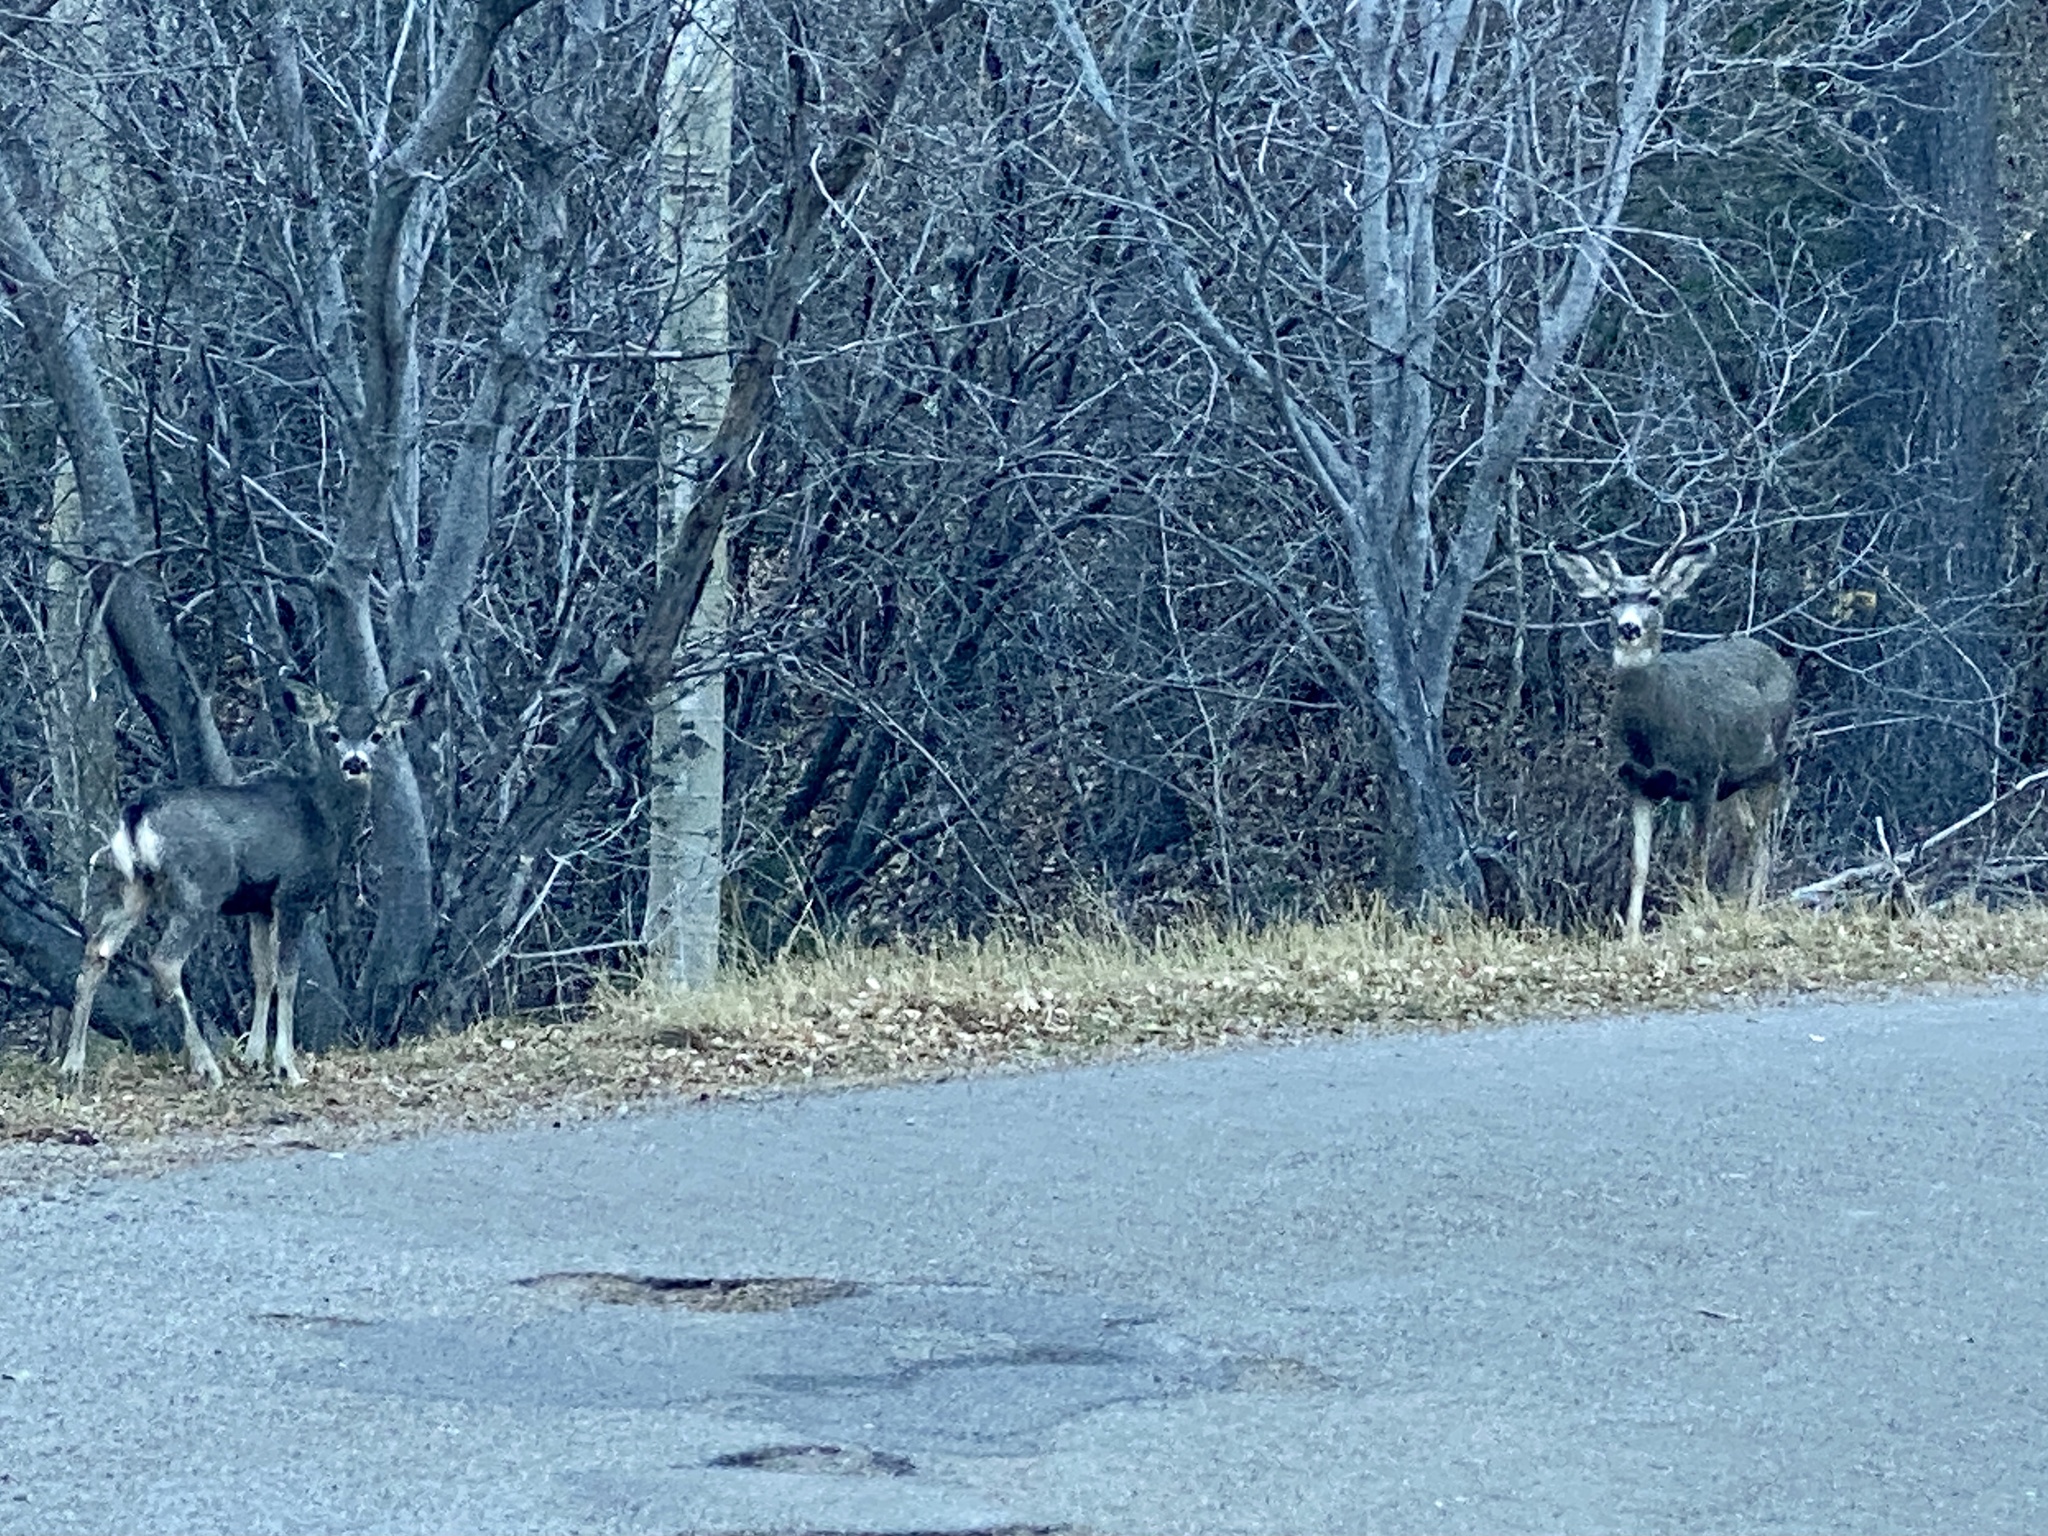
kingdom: Animalia
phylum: Chordata
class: Mammalia
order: Artiodactyla
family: Cervidae
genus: Odocoileus
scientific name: Odocoileus hemionus
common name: Mule deer
